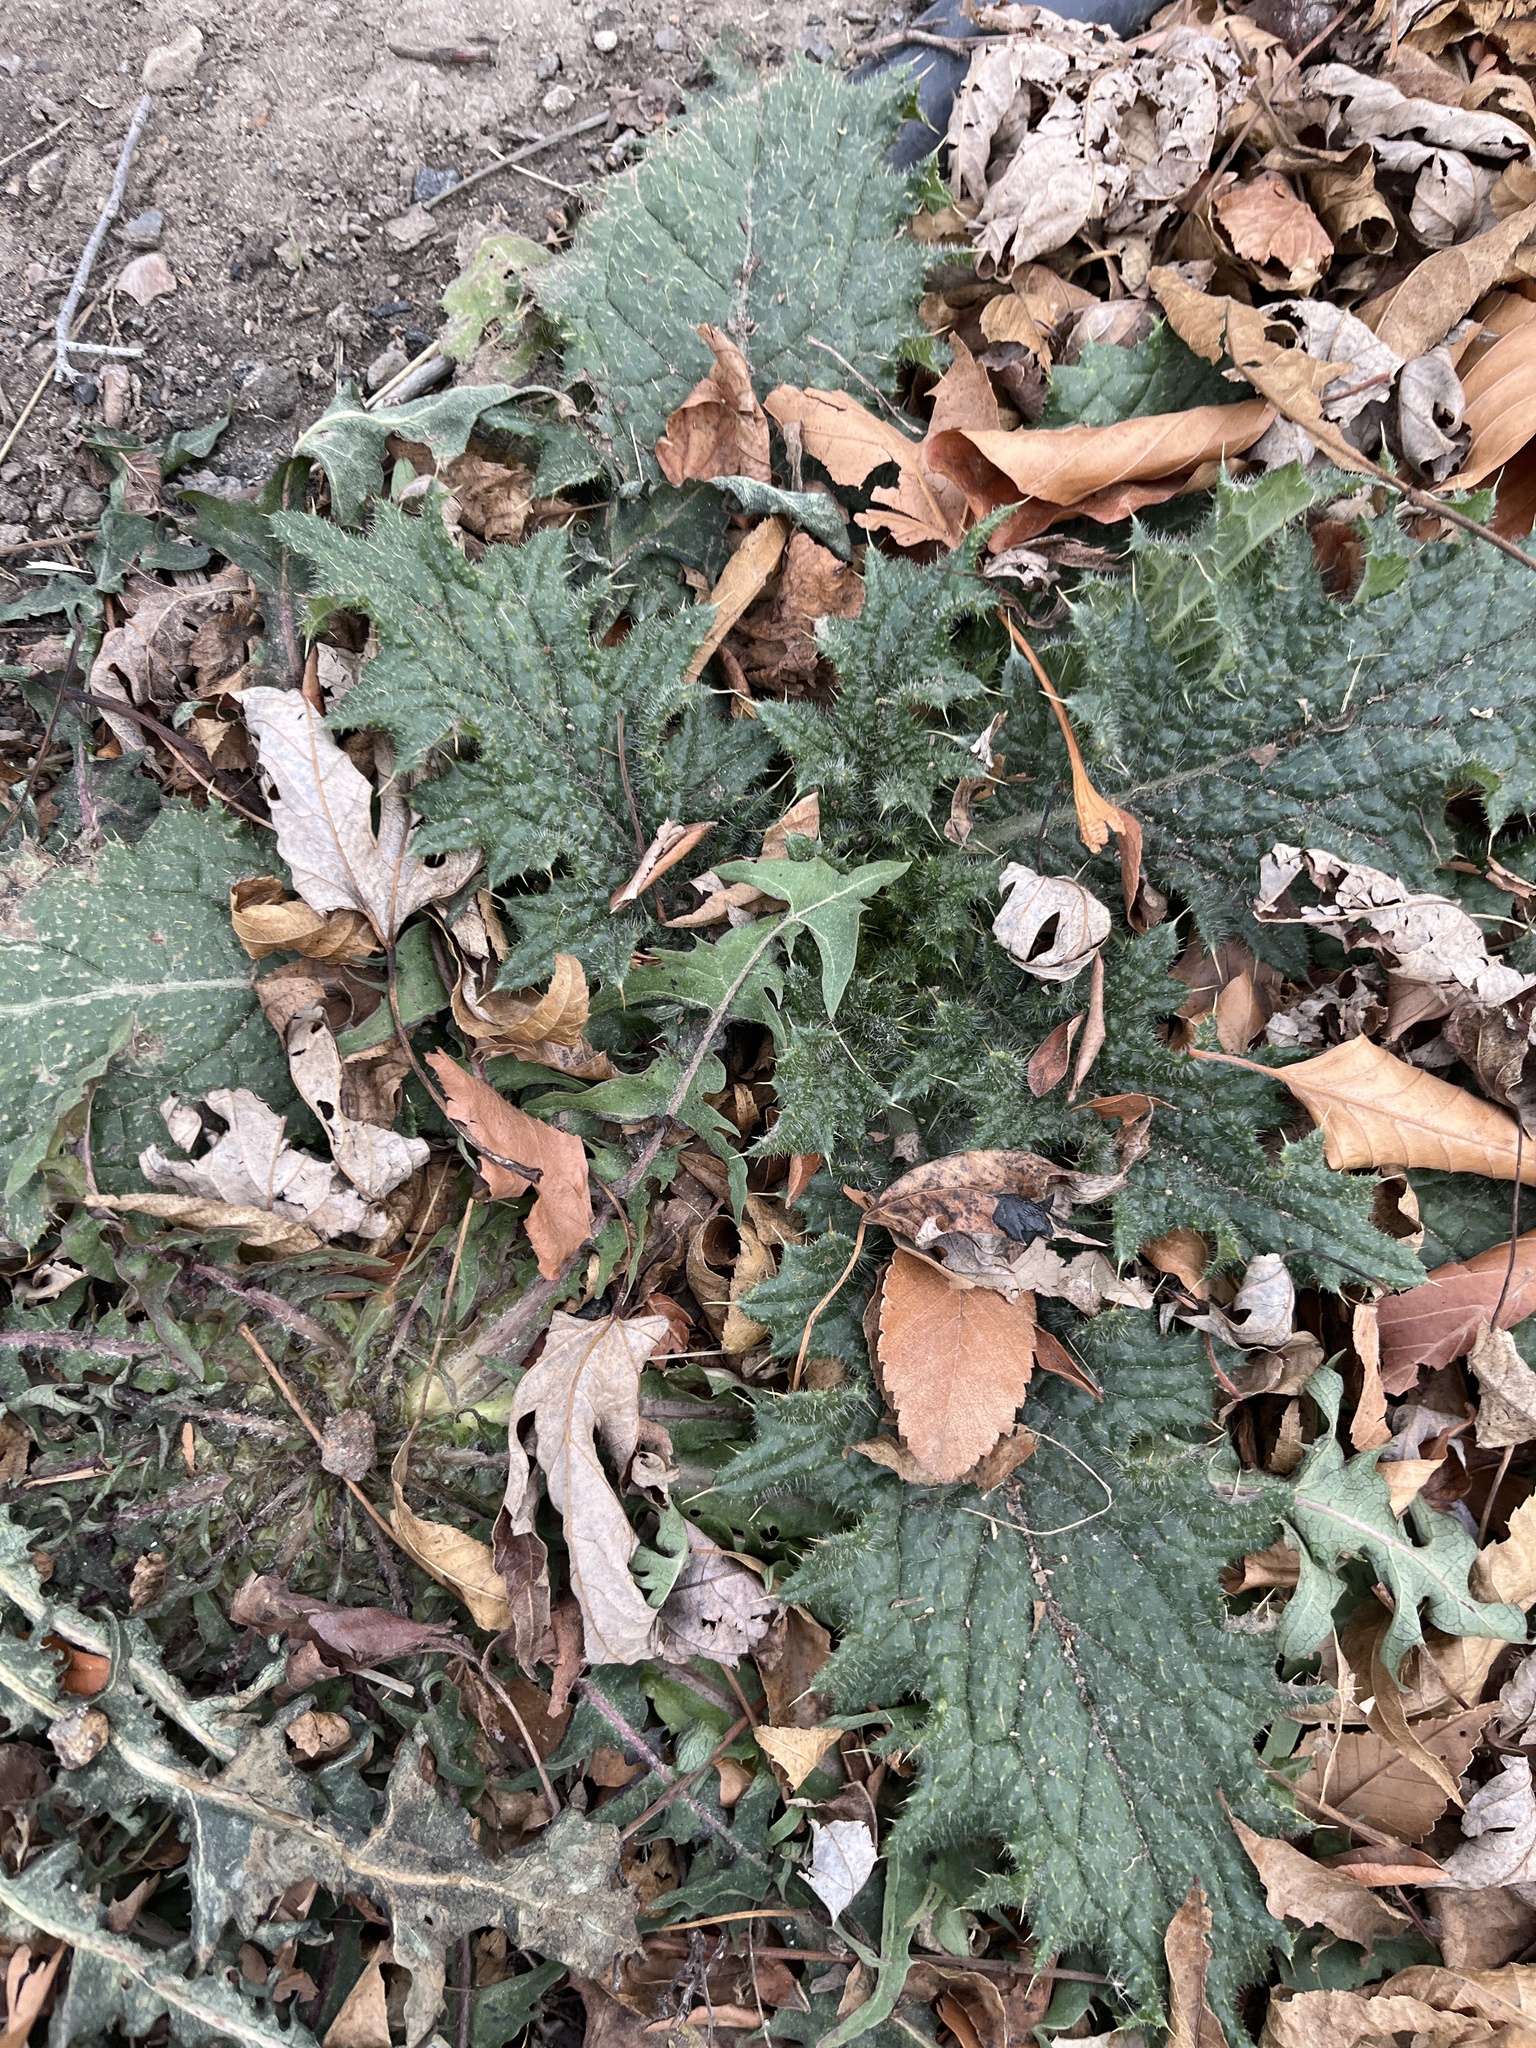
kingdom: Plantae
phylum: Tracheophyta
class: Magnoliopsida
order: Asterales
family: Asteraceae
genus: Cirsium
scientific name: Cirsium vulgare
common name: Bull thistle
